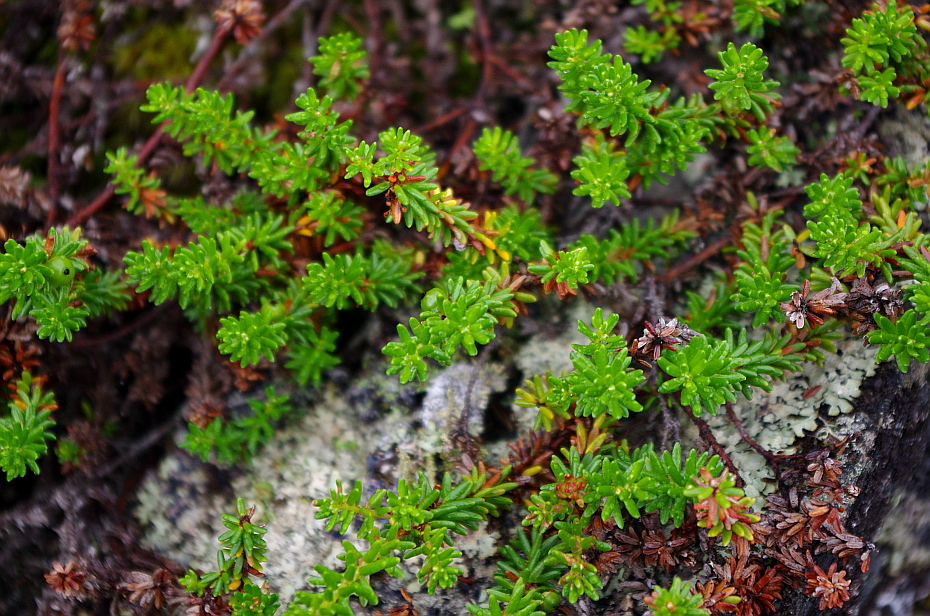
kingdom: Plantae
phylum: Tracheophyta
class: Magnoliopsida
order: Ericales
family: Ericaceae
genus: Empetrum
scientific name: Empetrum nigrum
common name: Black crowberry
